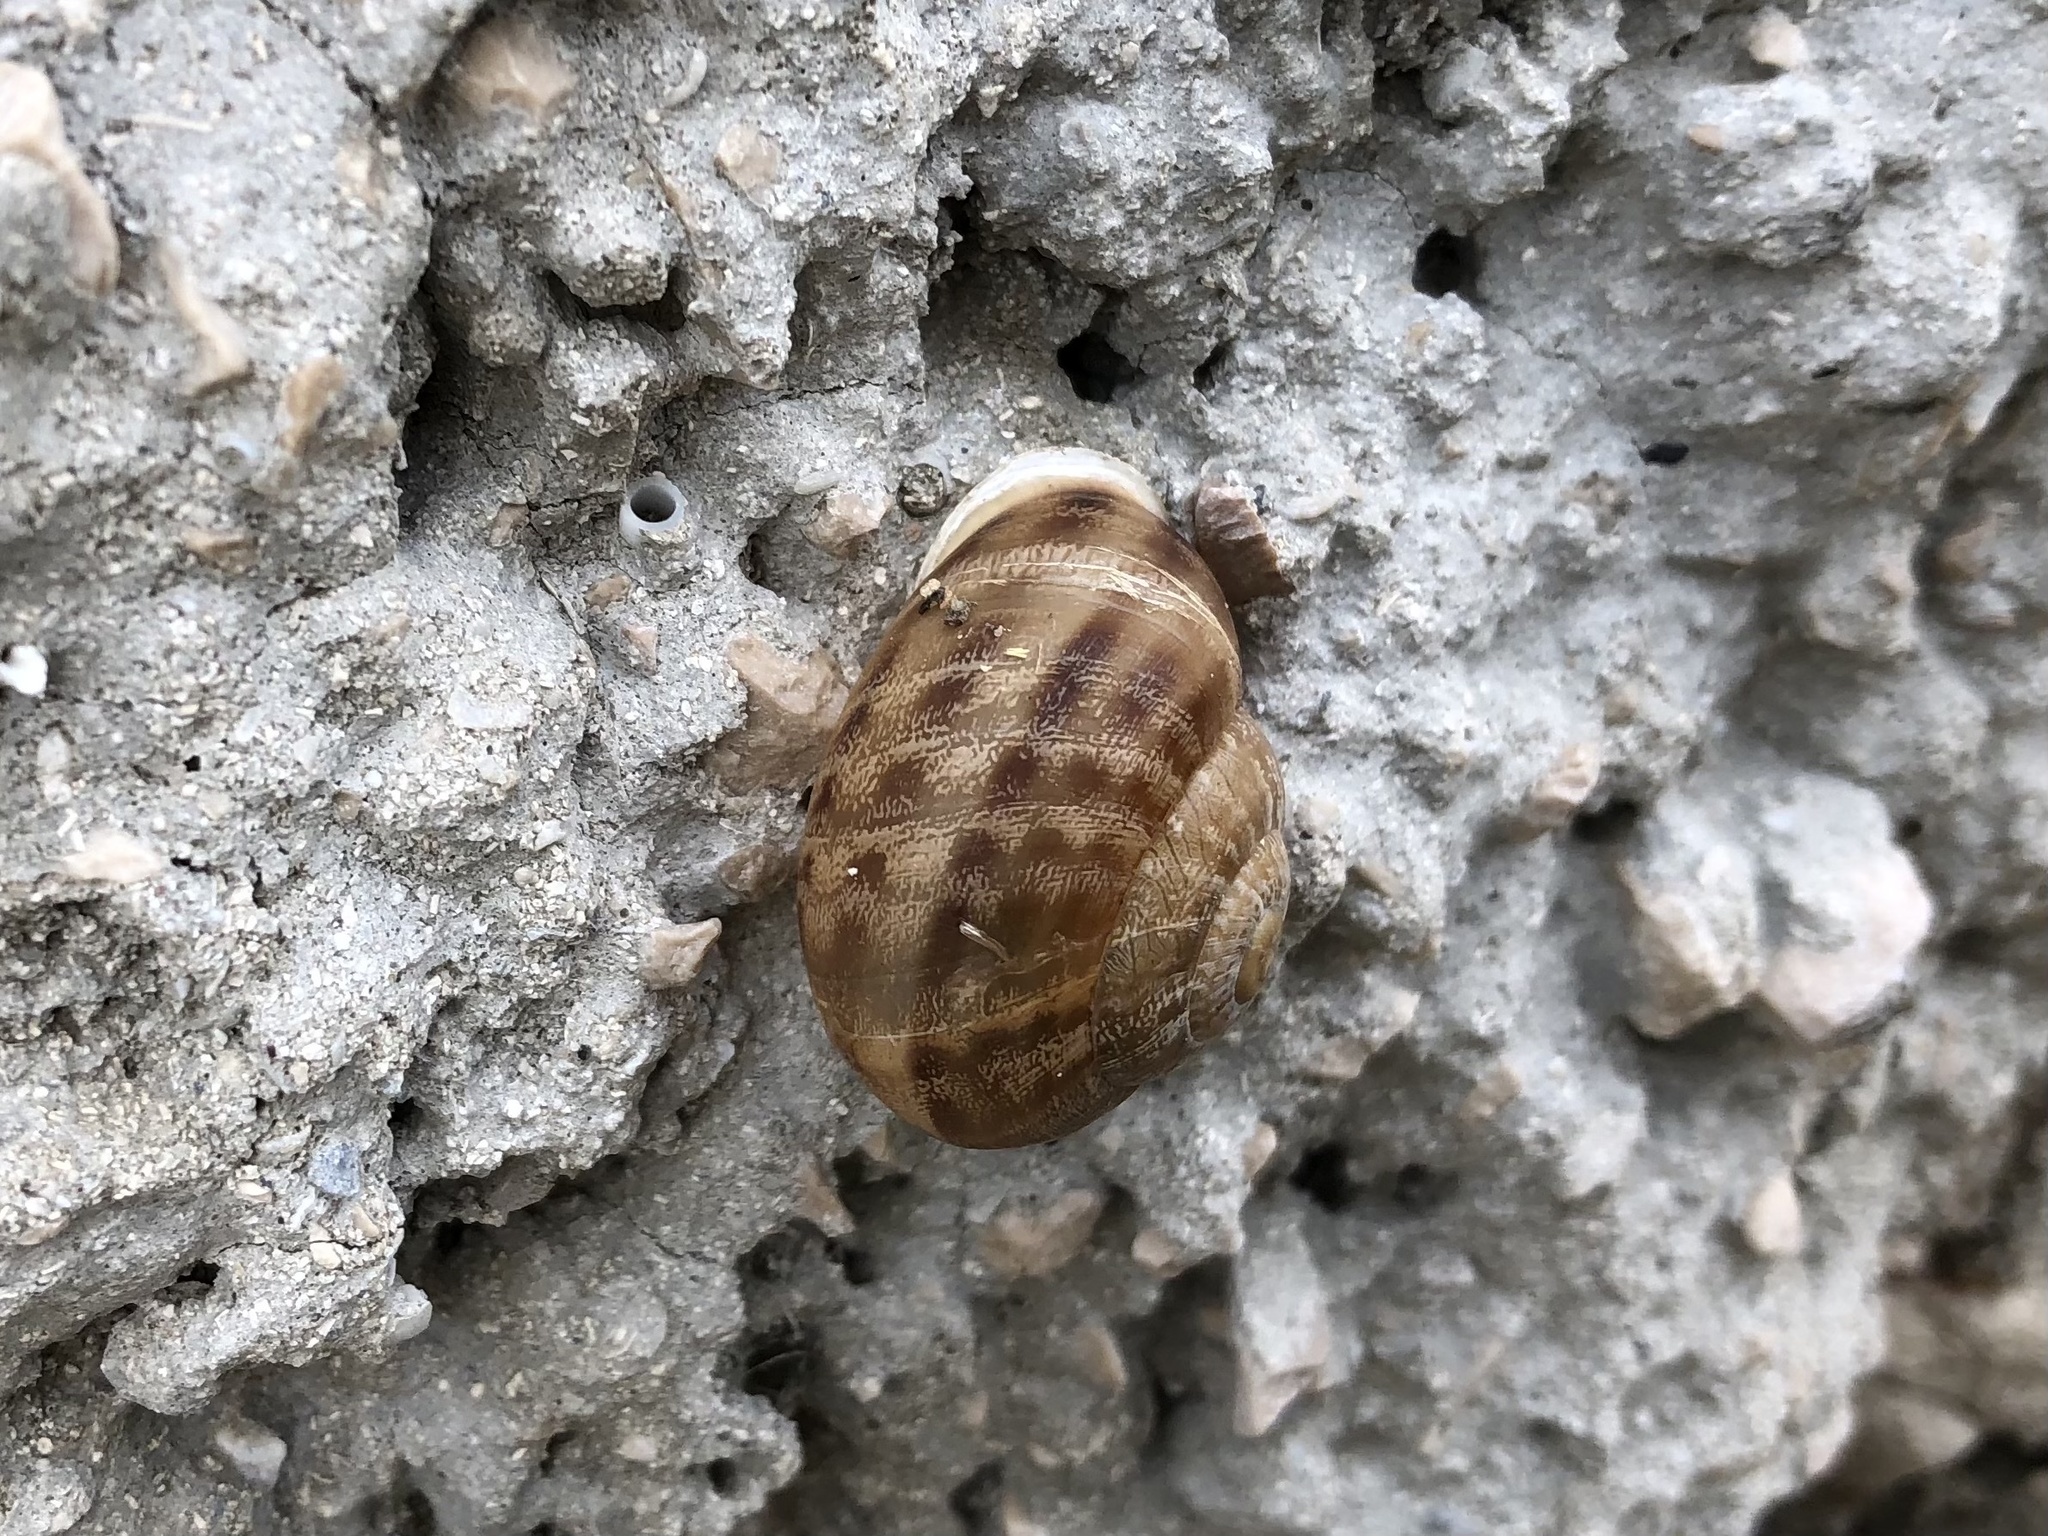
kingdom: Animalia
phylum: Mollusca
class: Gastropoda
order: Stylommatophora
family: Helicidae
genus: Eobania
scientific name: Eobania vermiculata
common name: Chocolateband snail
